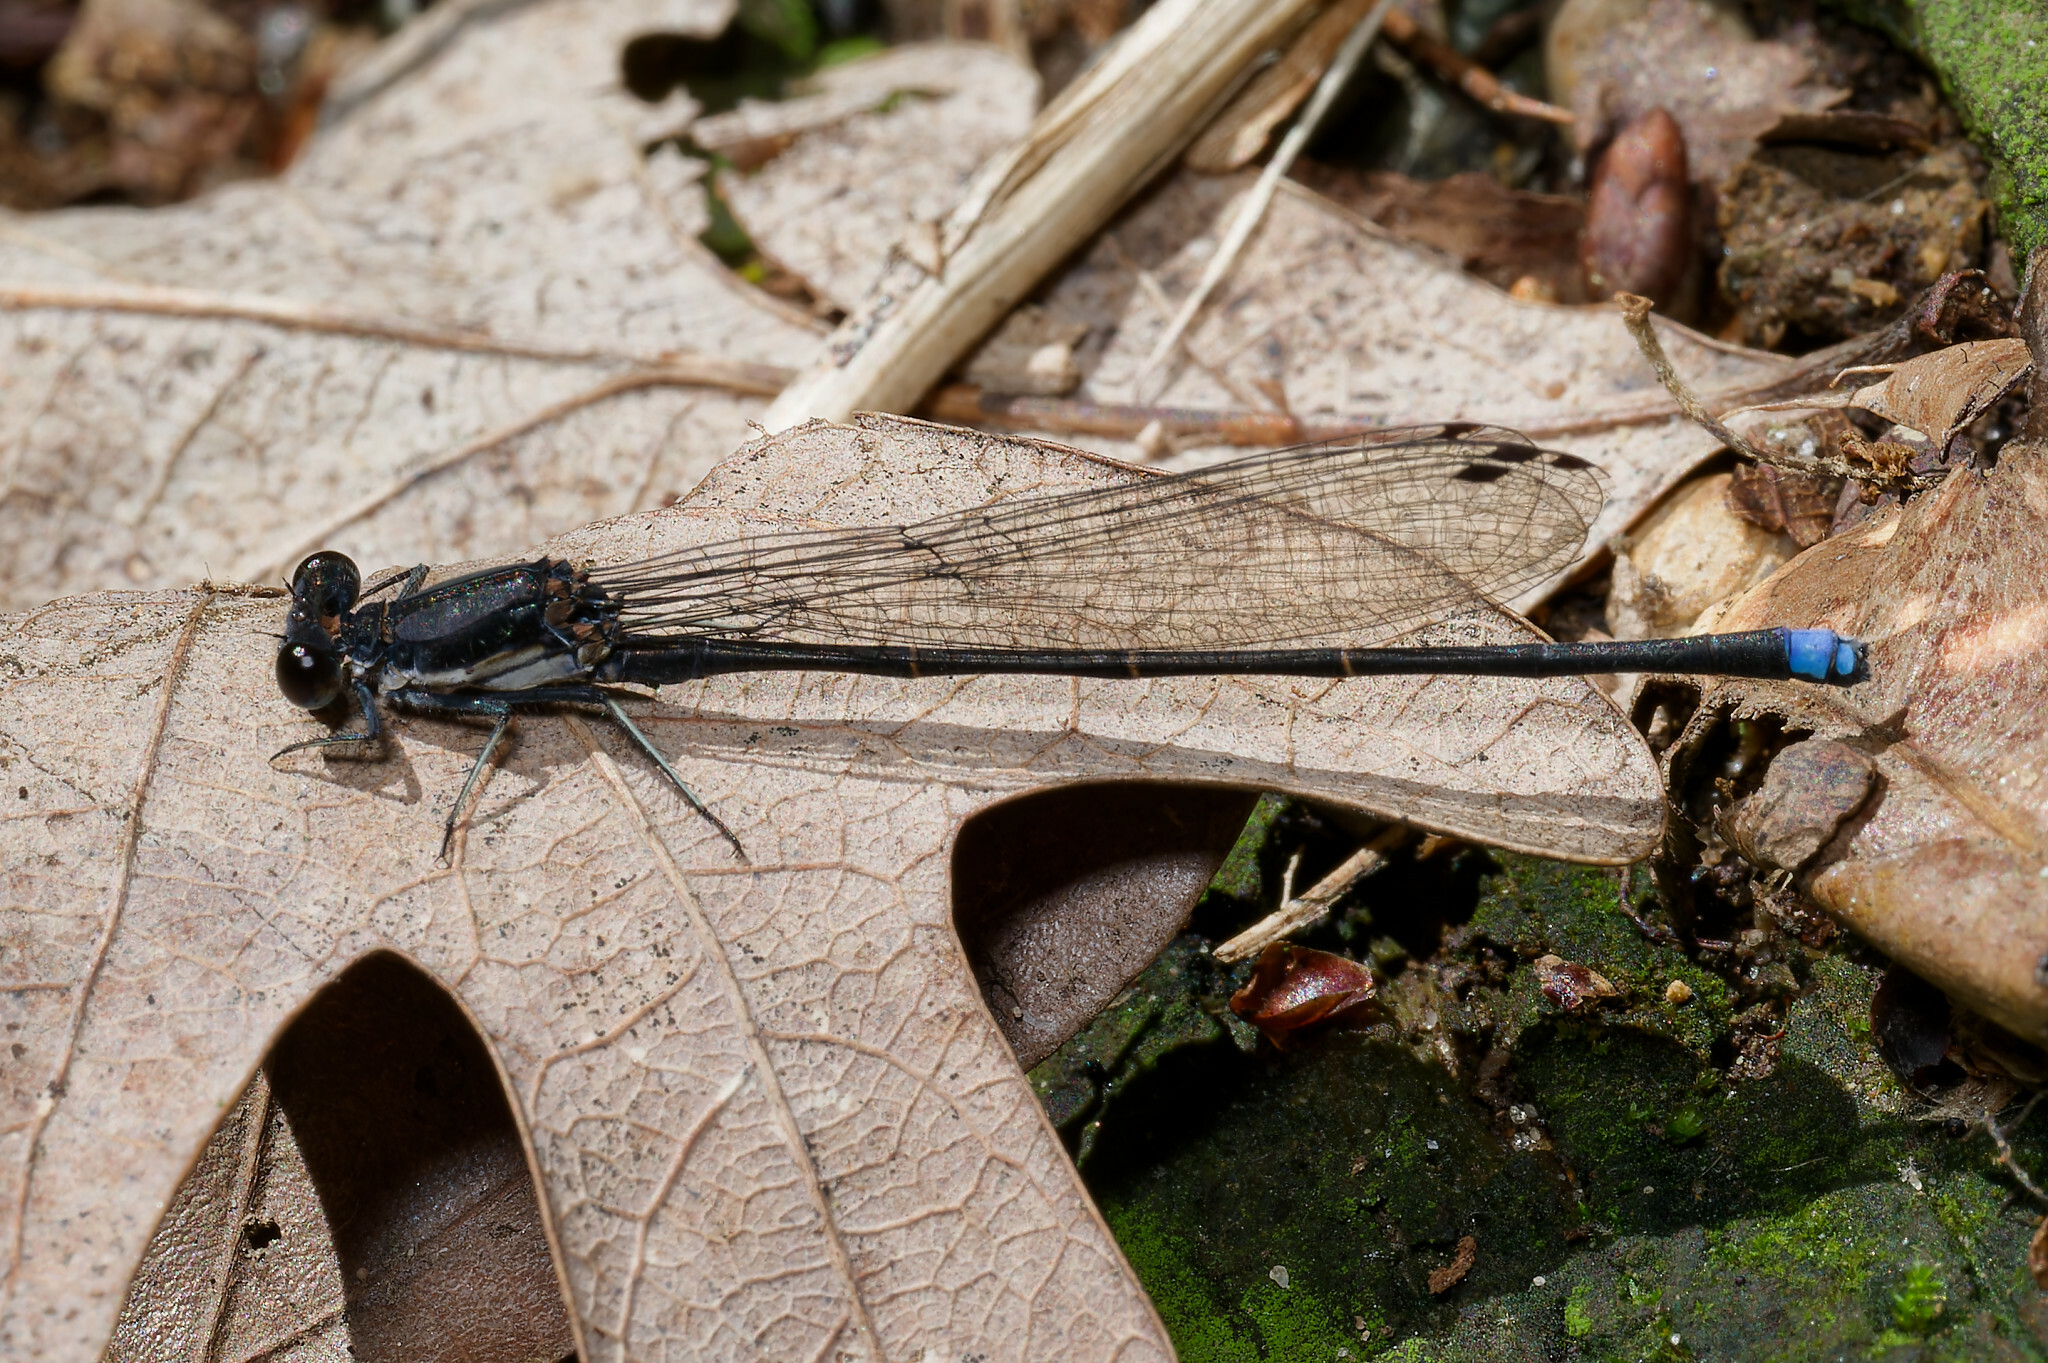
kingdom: Animalia
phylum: Arthropoda
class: Insecta
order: Odonata
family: Coenagrionidae
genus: Argia
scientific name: Argia tibialis
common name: Blue-tipped dancer
